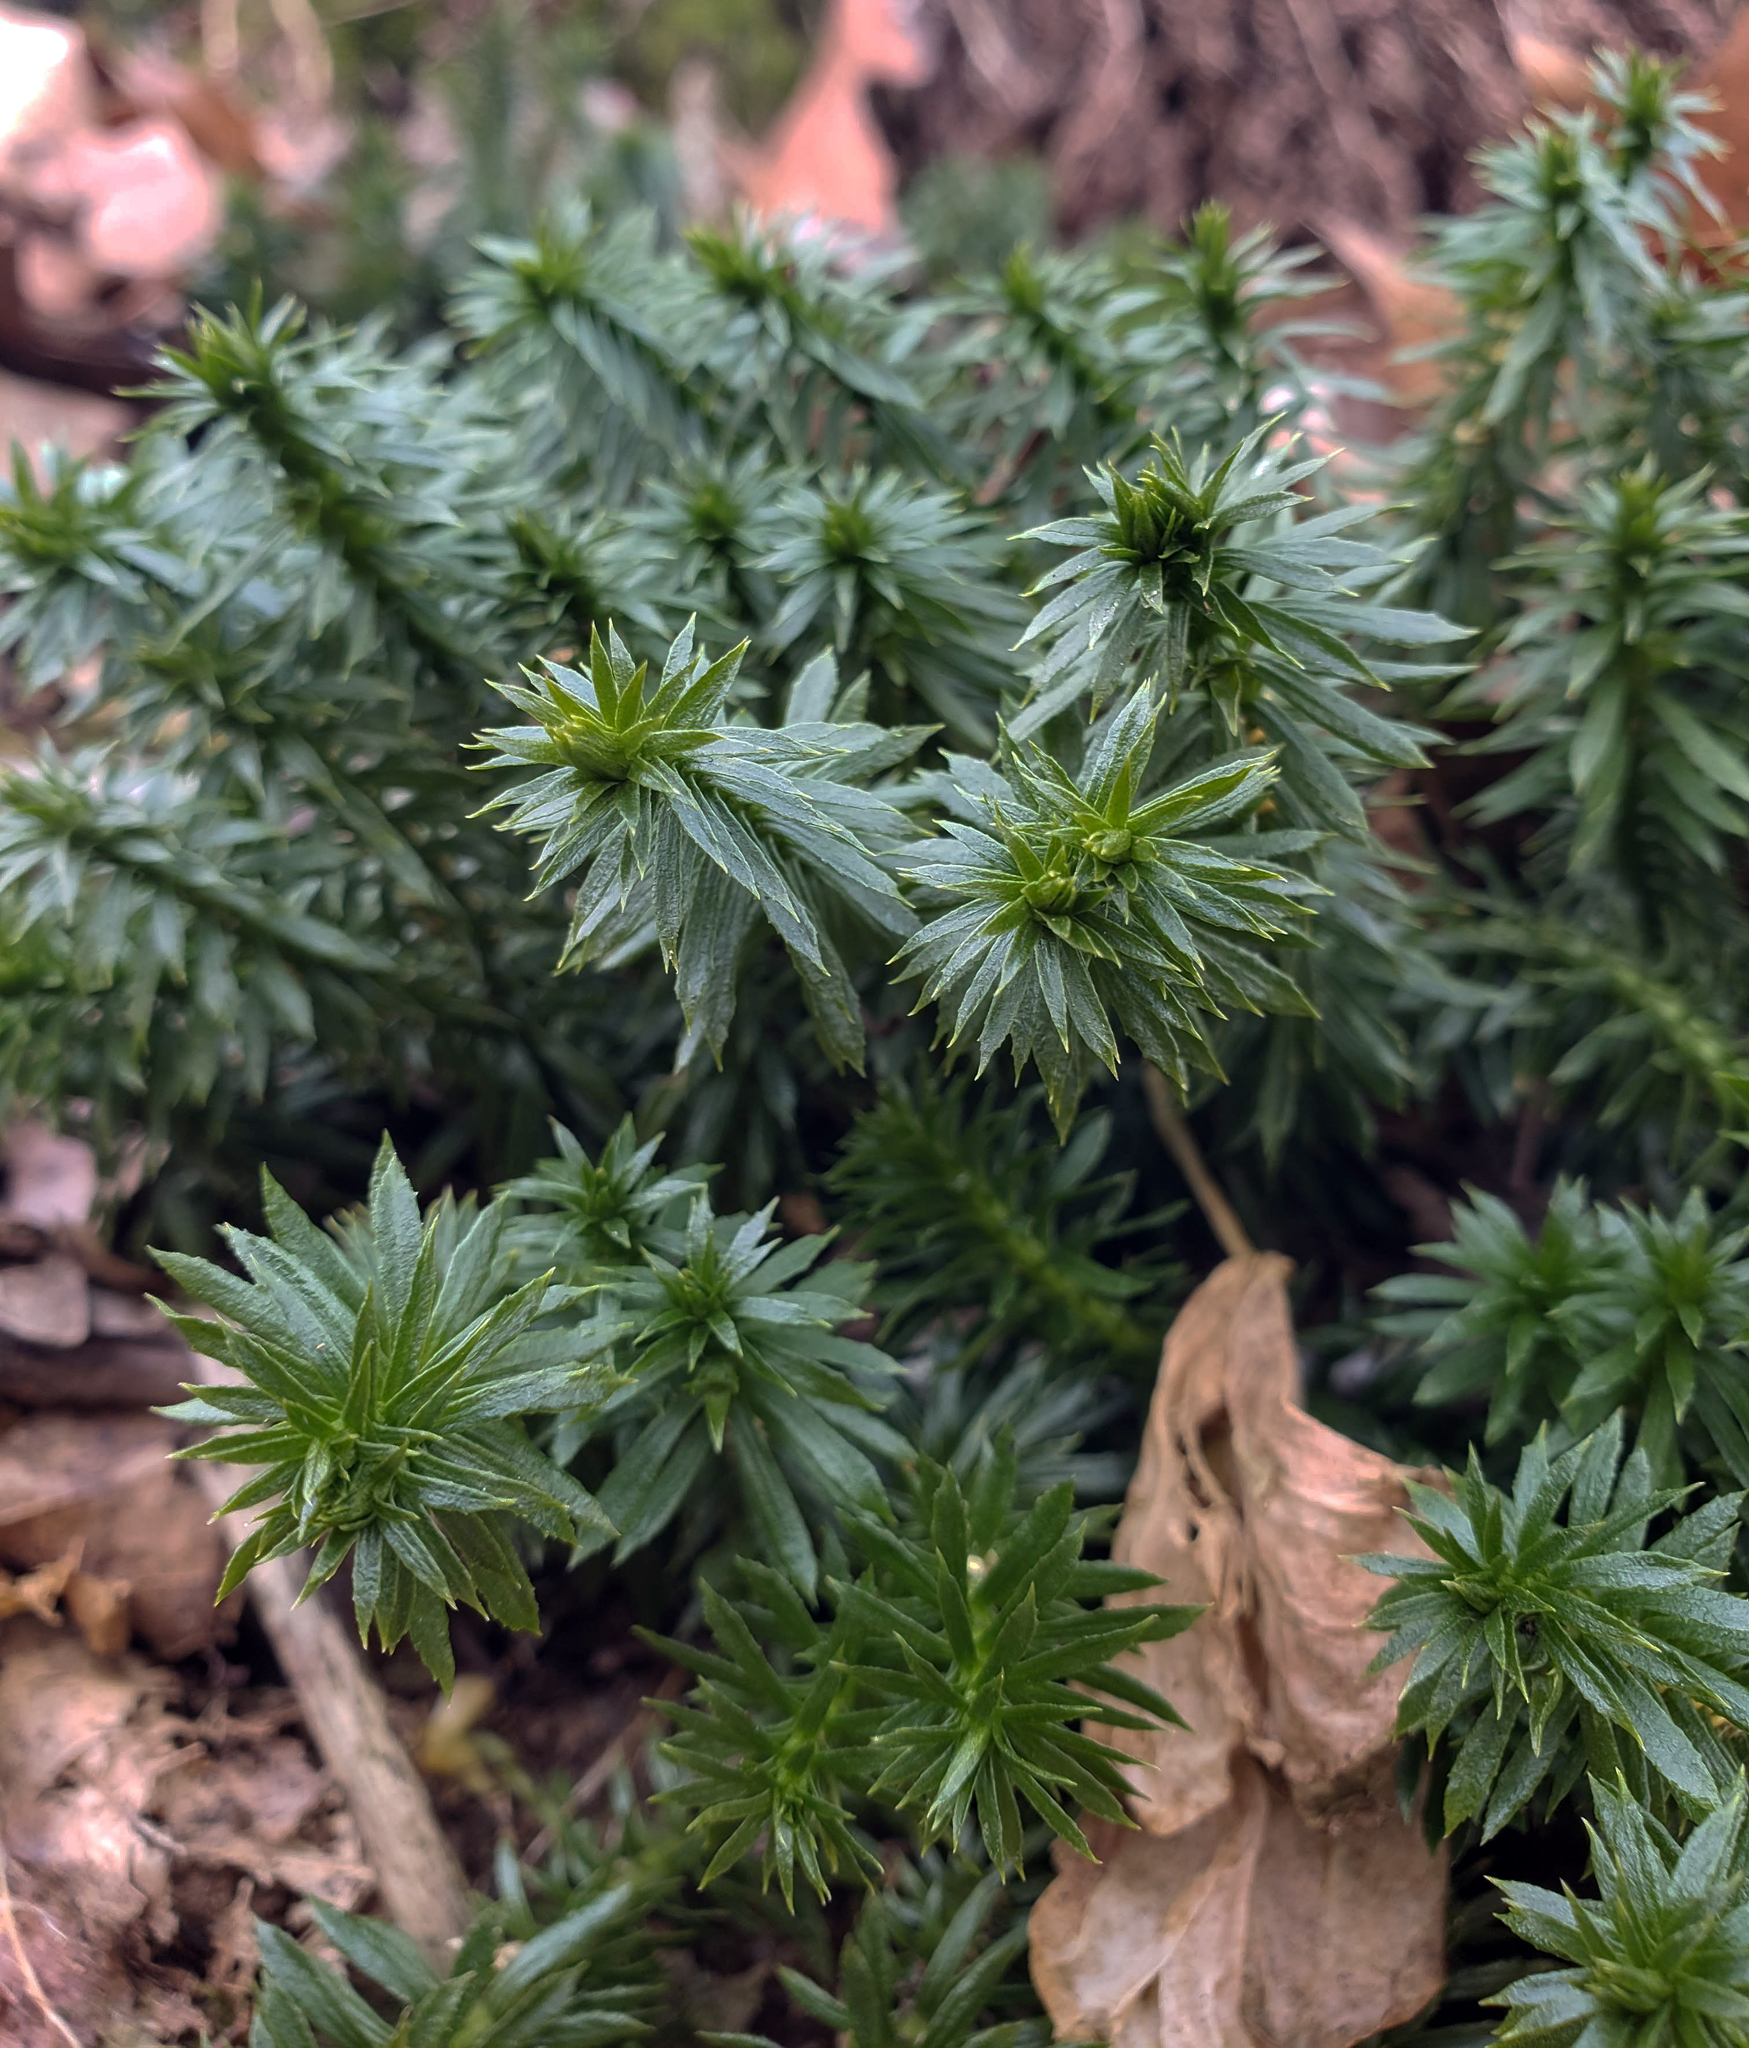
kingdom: Plantae
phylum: Tracheophyta
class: Lycopodiopsida
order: Lycopodiales
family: Lycopodiaceae
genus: Huperzia
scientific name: Huperzia lucidula
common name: Shining clubmoss
